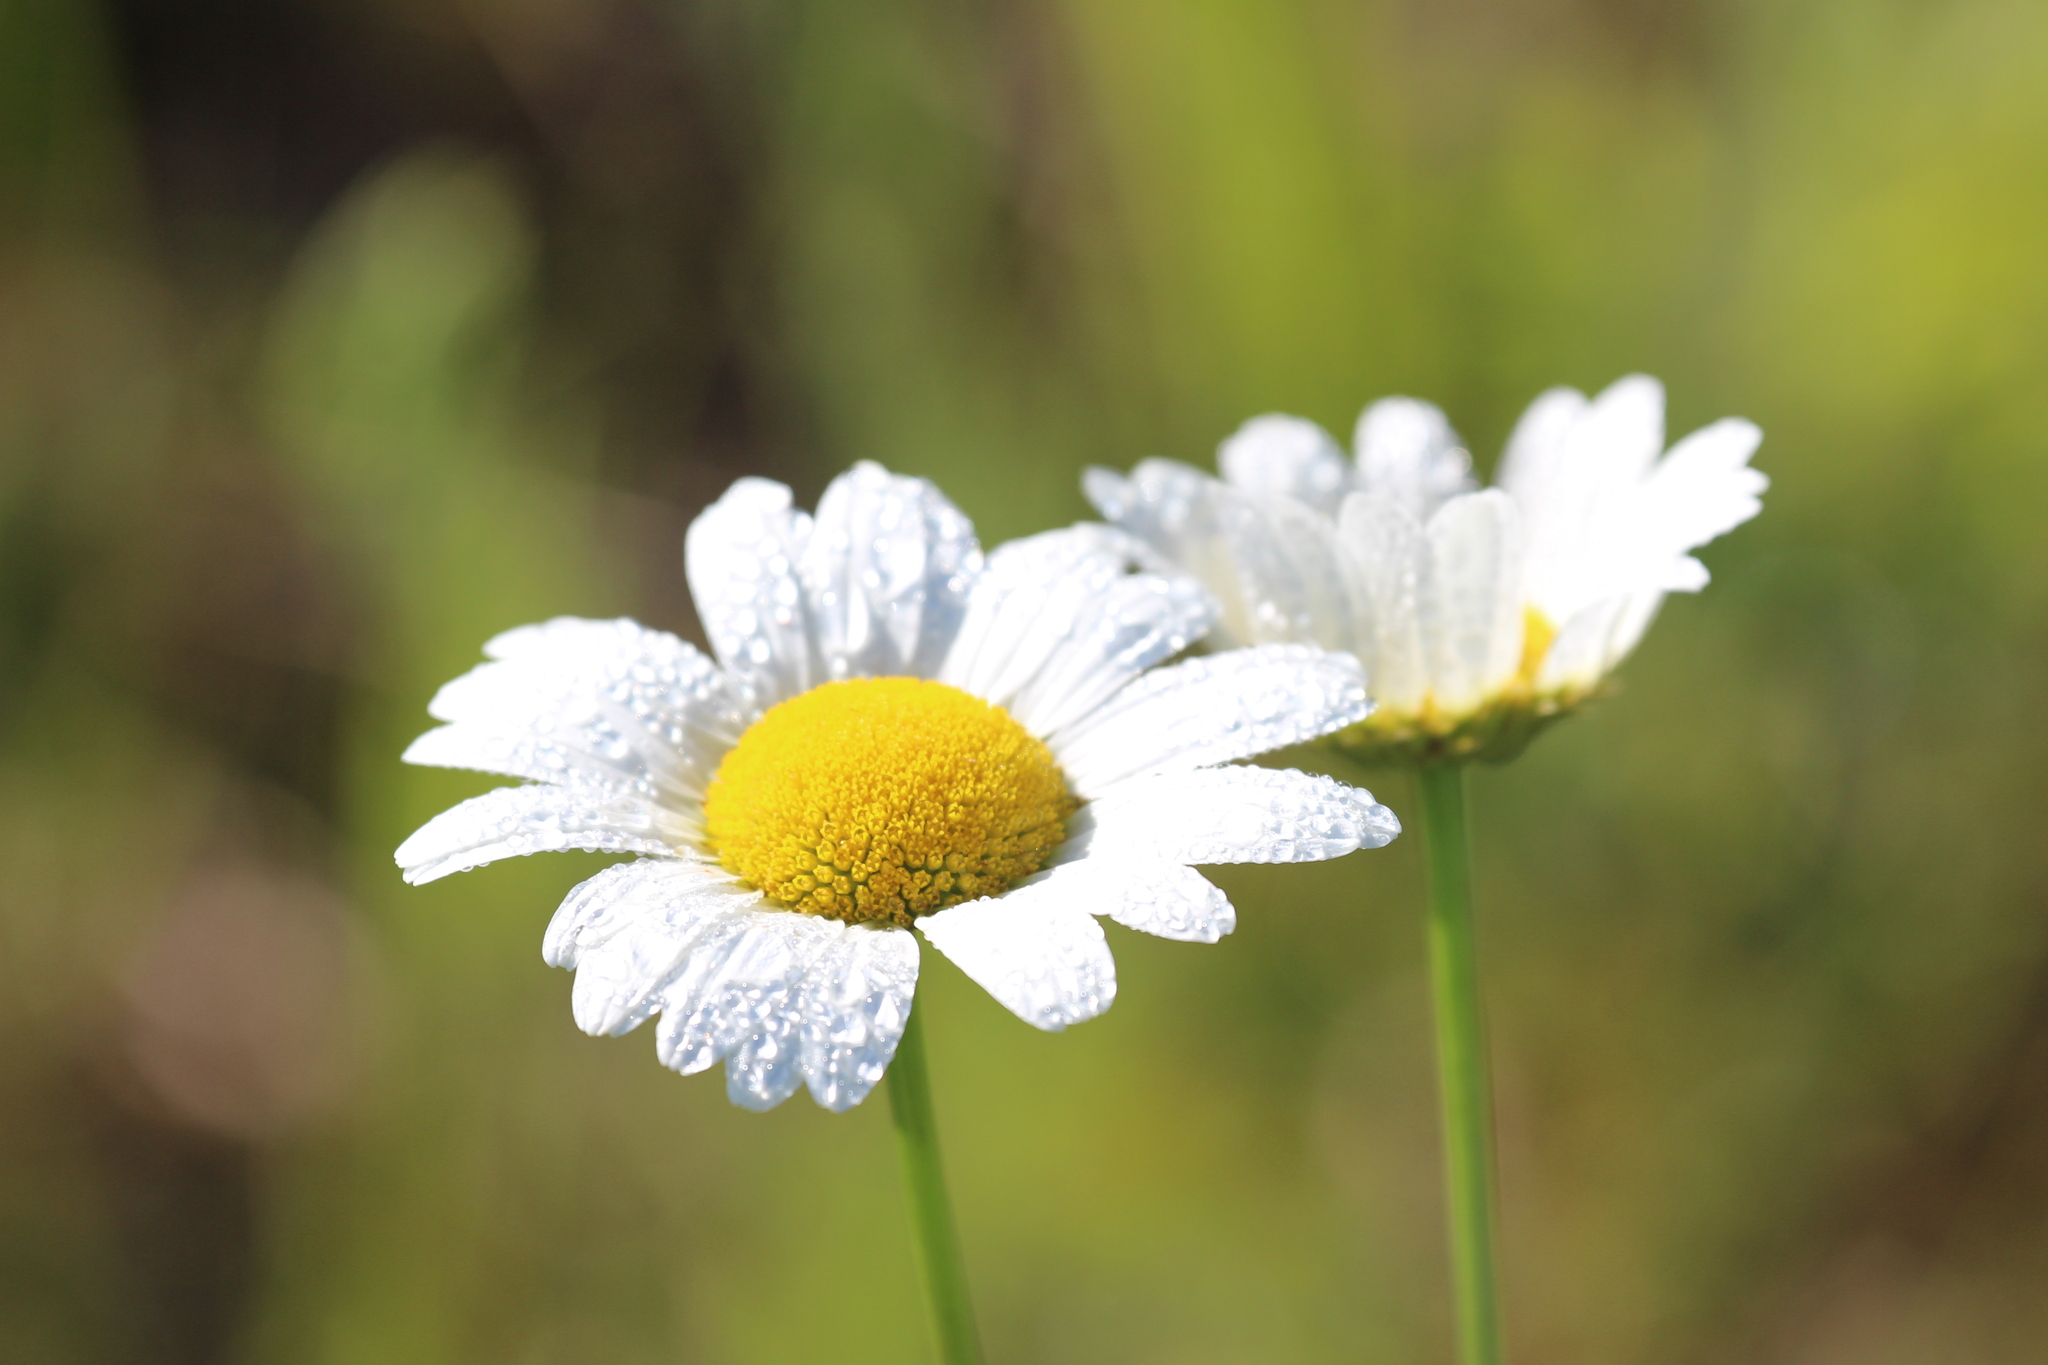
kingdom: Plantae
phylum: Tracheophyta
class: Magnoliopsida
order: Asterales
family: Asteraceae
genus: Leucanthemum
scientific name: Leucanthemum vulgare
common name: Oxeye daisy
